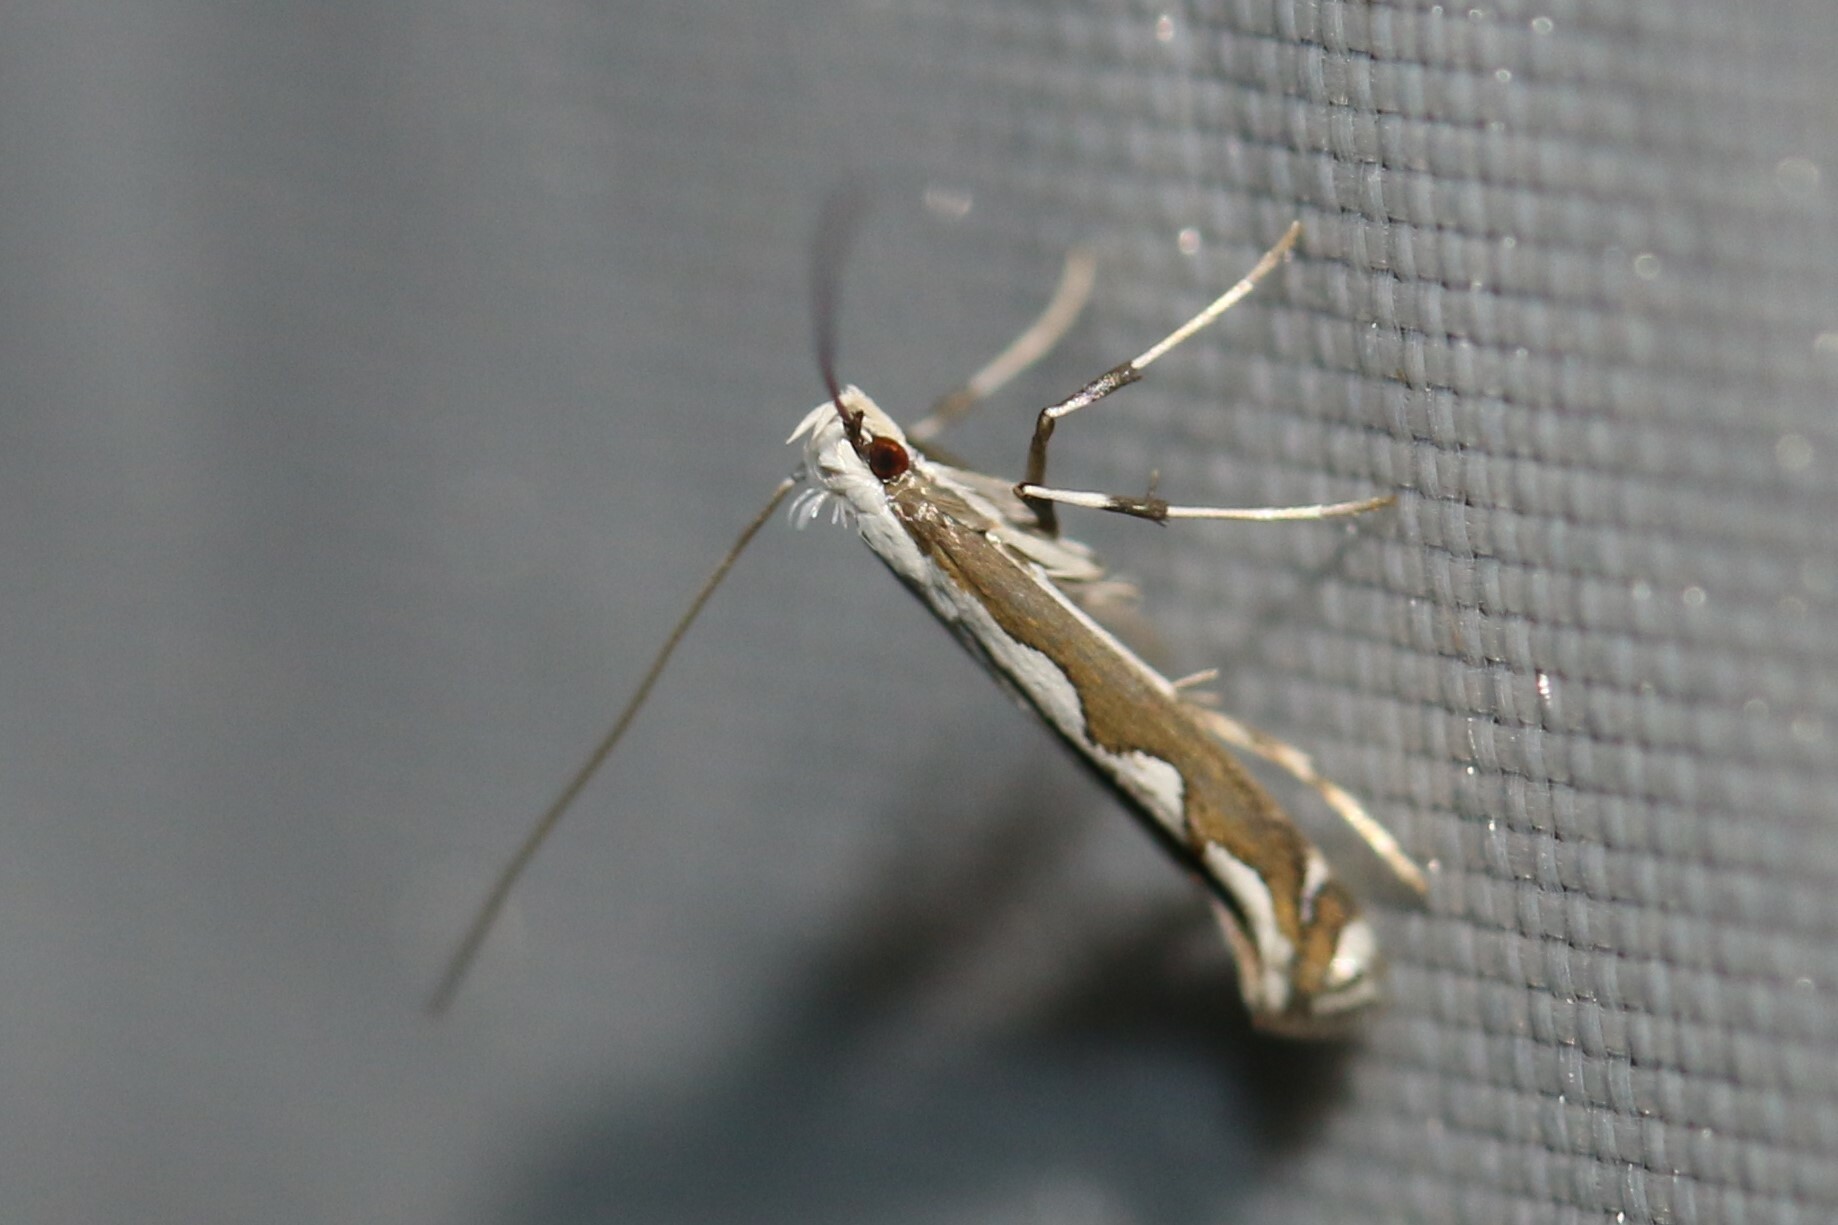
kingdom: Animalia
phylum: Arthropoda
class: Insecta
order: Lepidoptera
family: Gracillariidae
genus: Dialectica
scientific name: Dialectica scalariella
